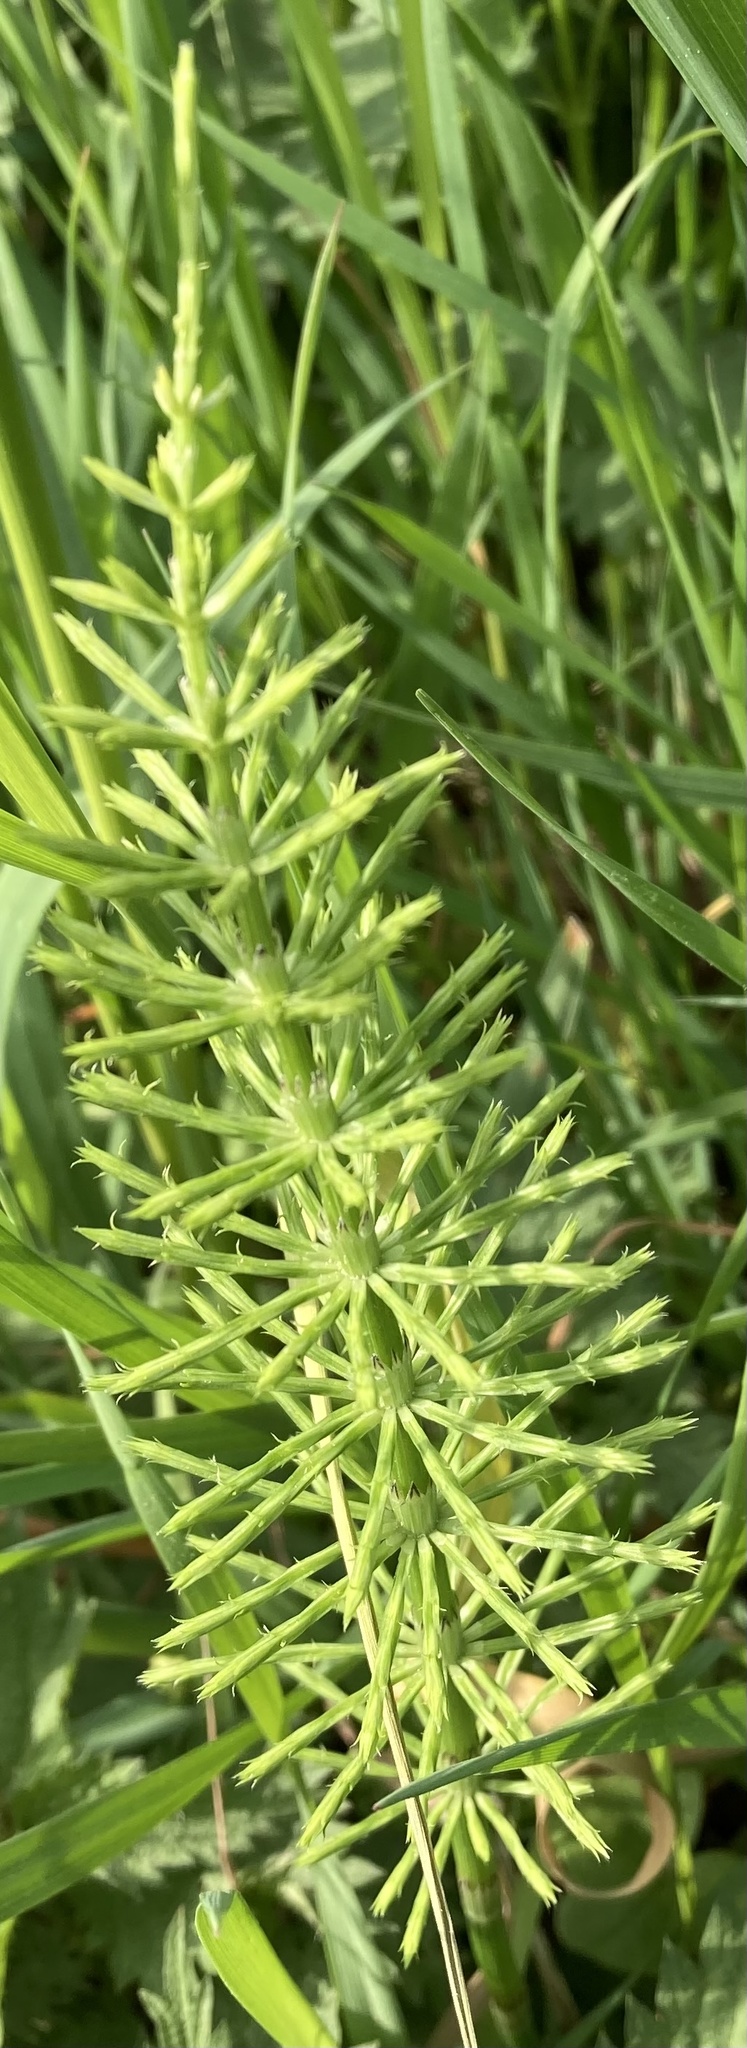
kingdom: Plantae
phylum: Tracheophyta
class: Polypodiopsida
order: Equisetales
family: Equisetaceae
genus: Equisetum
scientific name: Equisetum arvense
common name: Field horsetail
